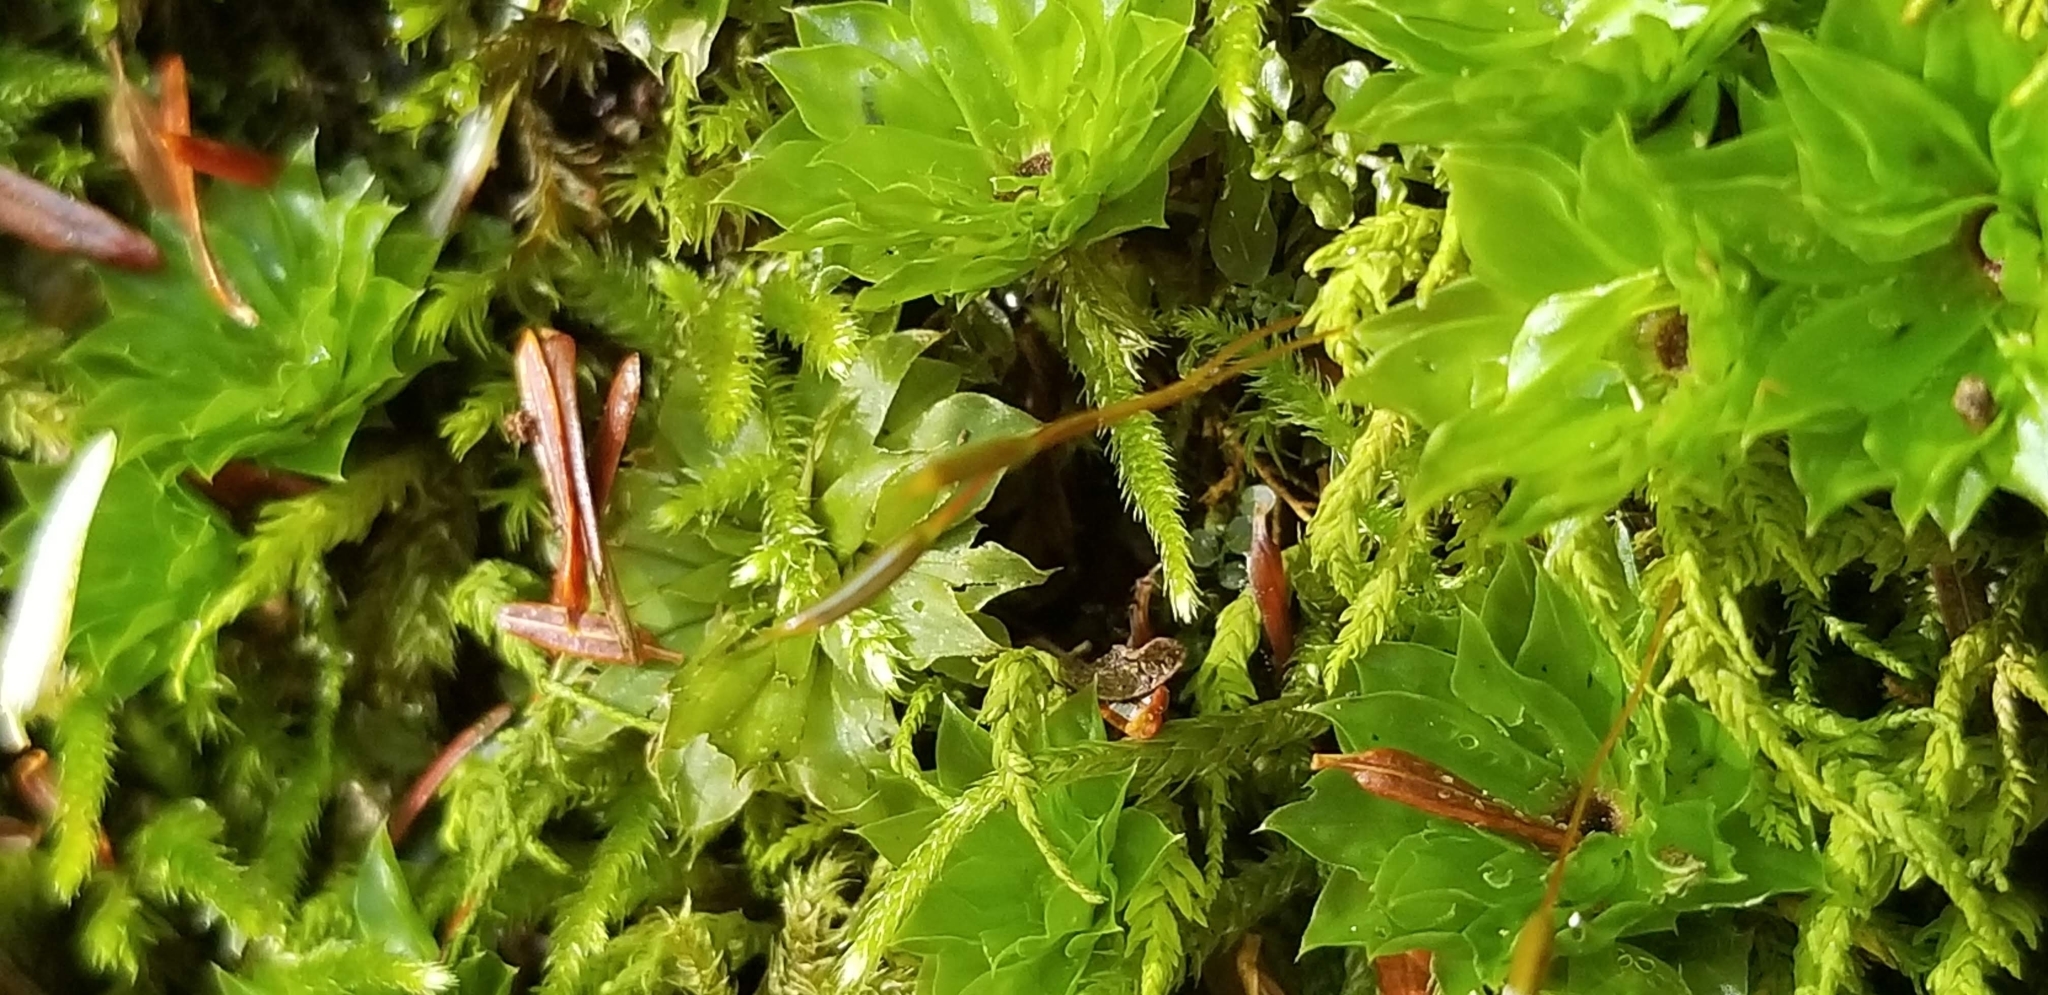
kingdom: Plantae
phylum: Bryophyta
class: Bryopsida
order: Bryales
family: Bryaceae
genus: Rhodobryum
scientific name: Rhodobryum ontariense
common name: Ontario rhodobryum moss
